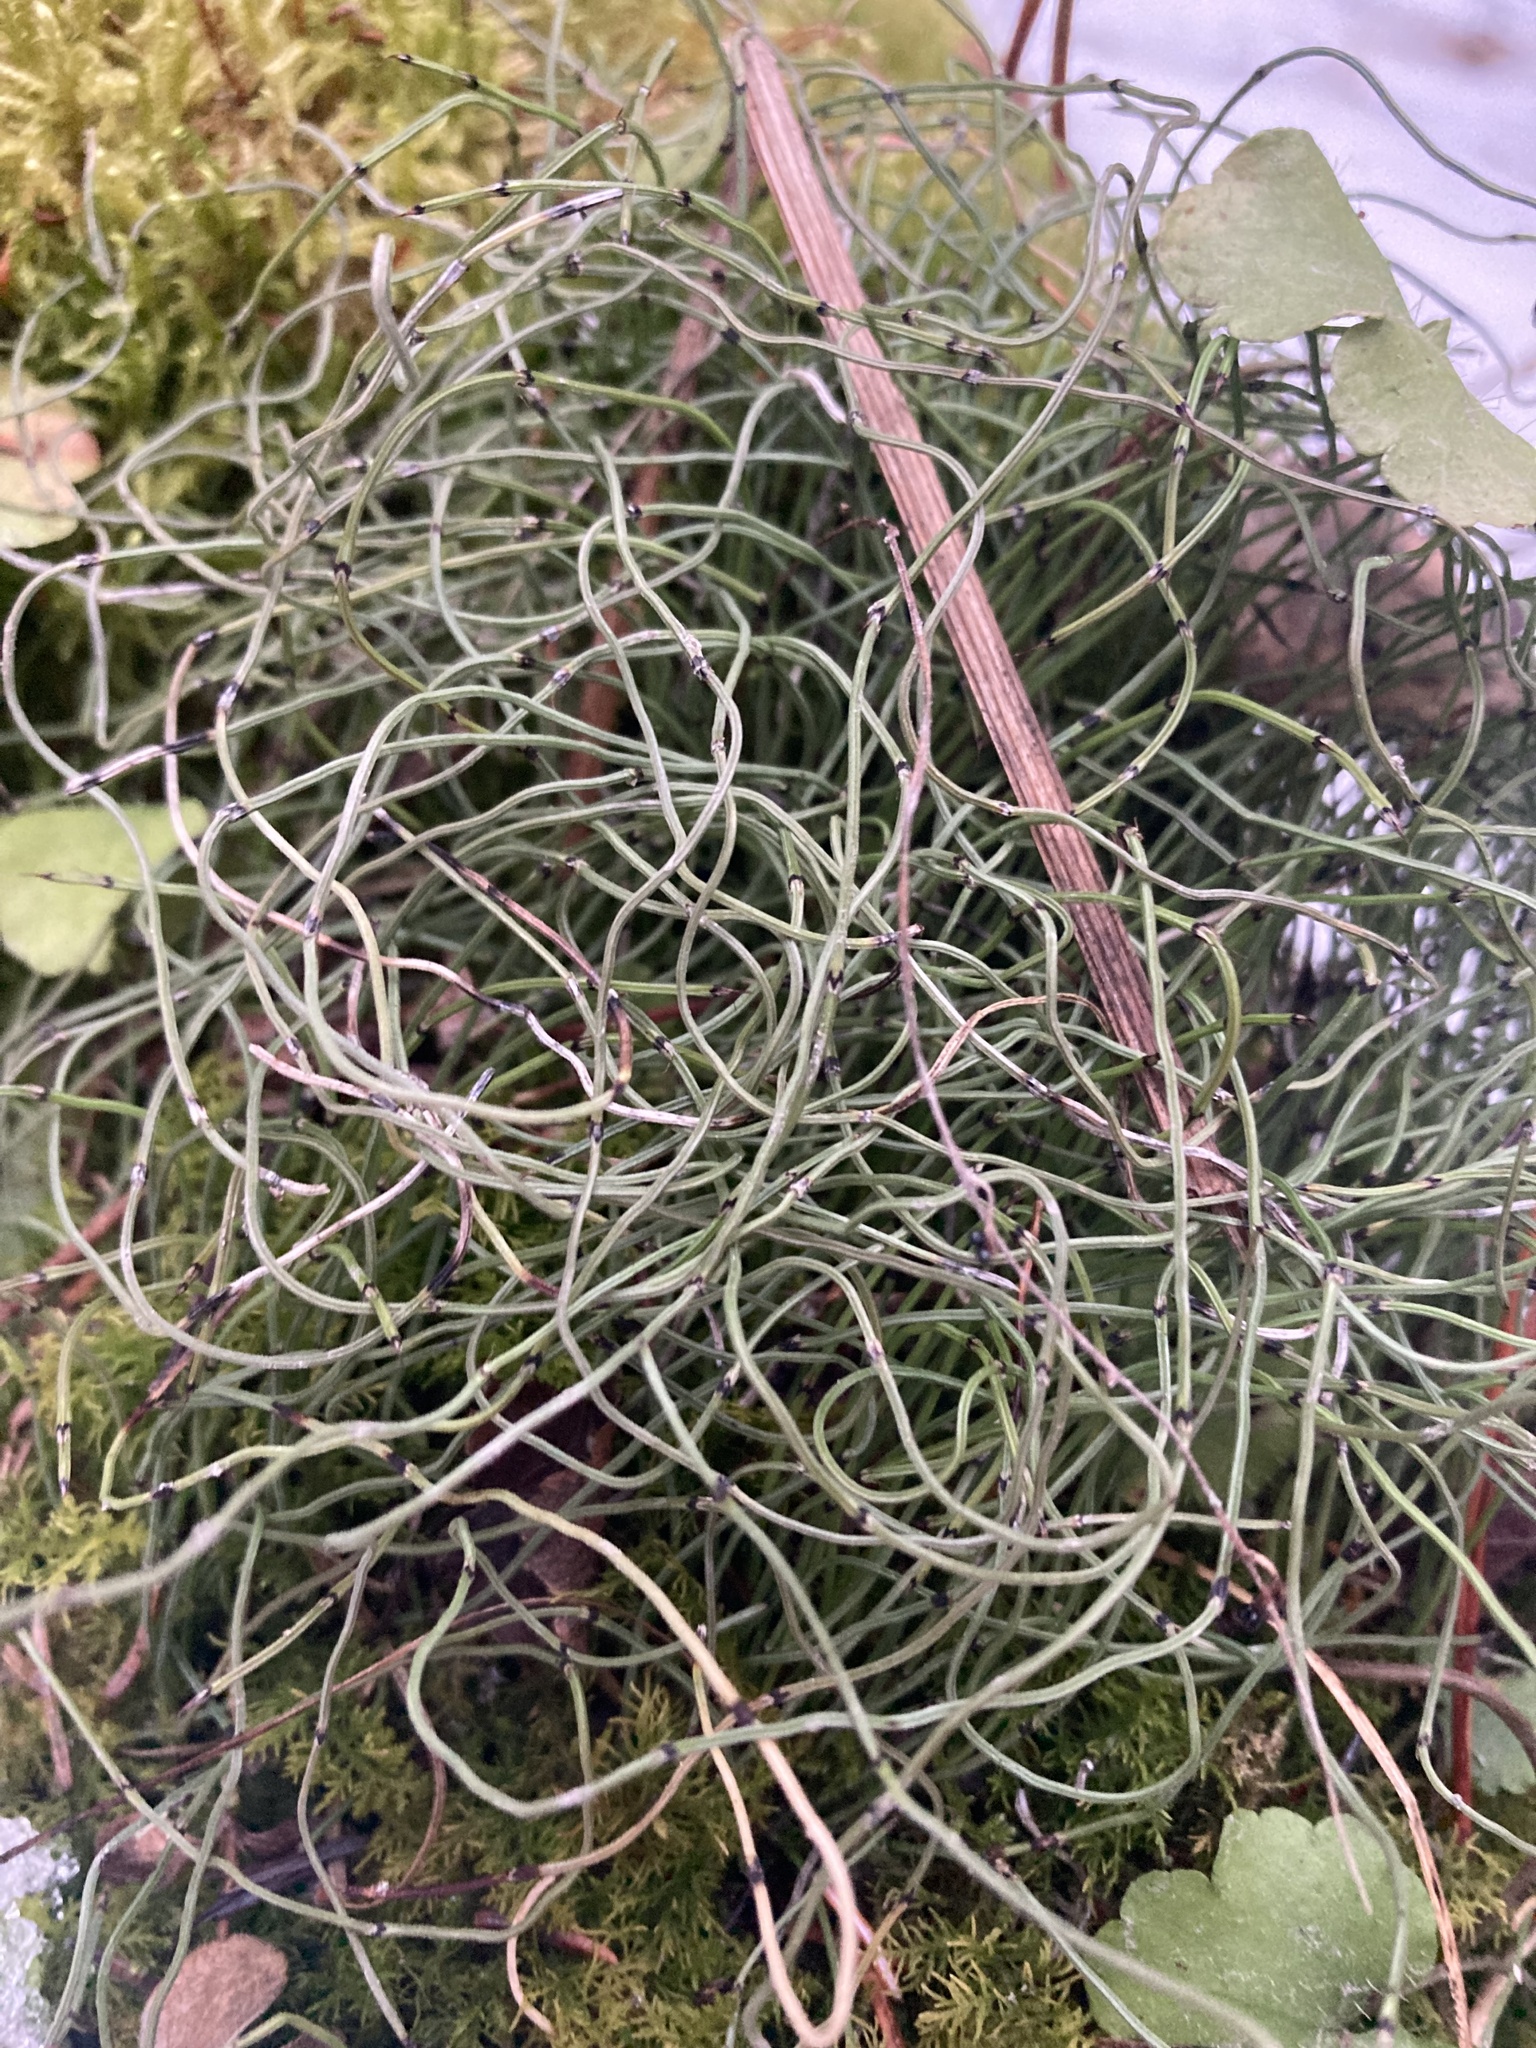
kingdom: Plantae
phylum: Tracheophyta
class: Polypodiopsida
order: Equisetales
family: Equisetaceae
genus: Equisetum
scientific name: Equisetum scirpoides
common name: Delicate horsetail
